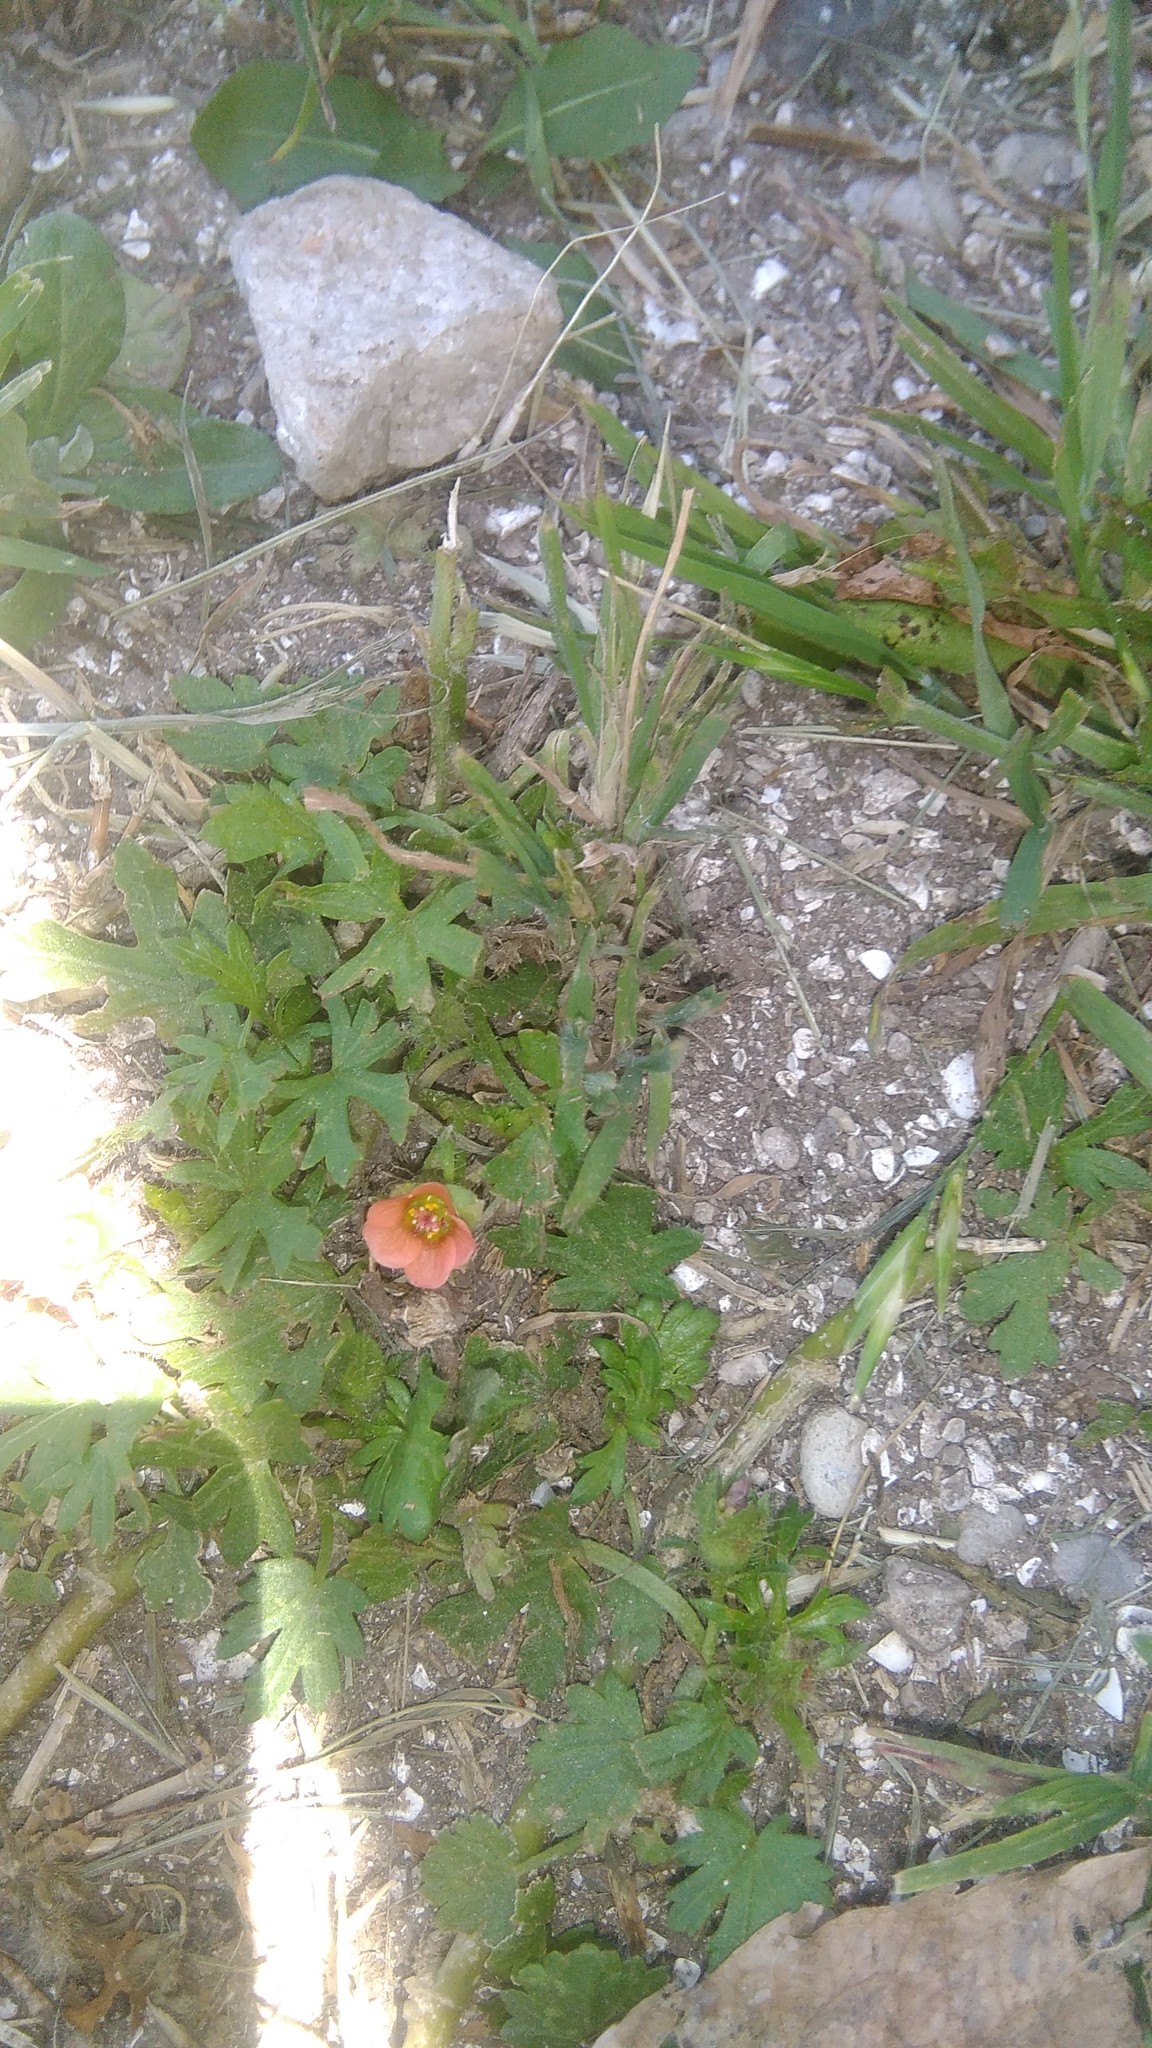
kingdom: Plantae
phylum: Tracheophyta
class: Magnoliopsida
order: Malvales
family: Malvaceae
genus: Modiola
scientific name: Modiola caroliniana
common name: Carolina bristlemallow
